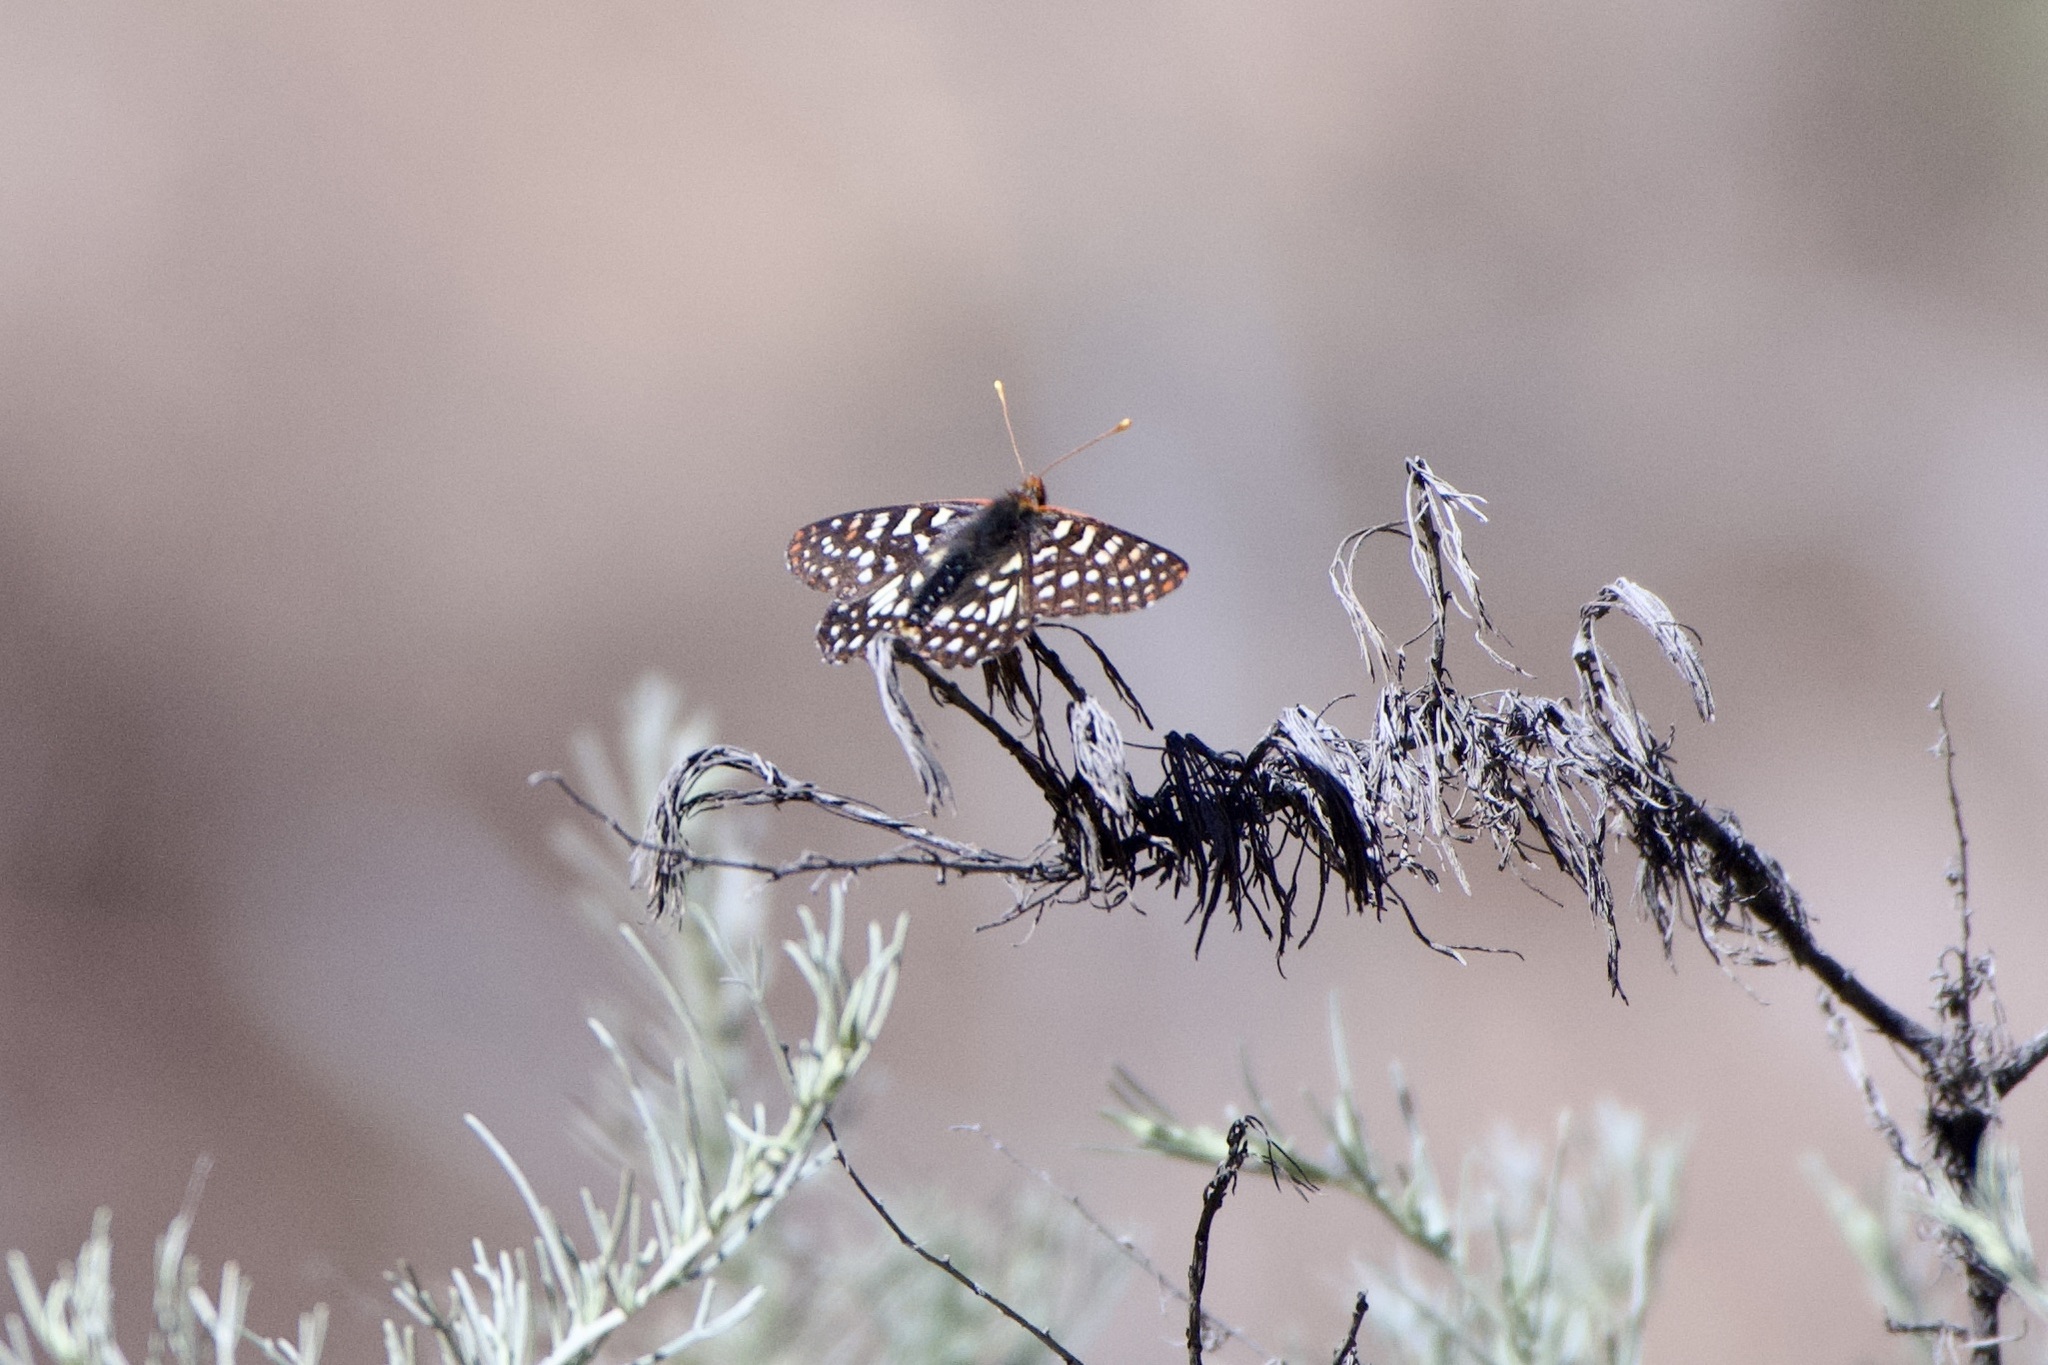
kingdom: Animalia
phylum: Arthropoda
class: Insecta
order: Lepidoptera
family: Nymphalidae
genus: Occidryas
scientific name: Occidryas chalcedona
